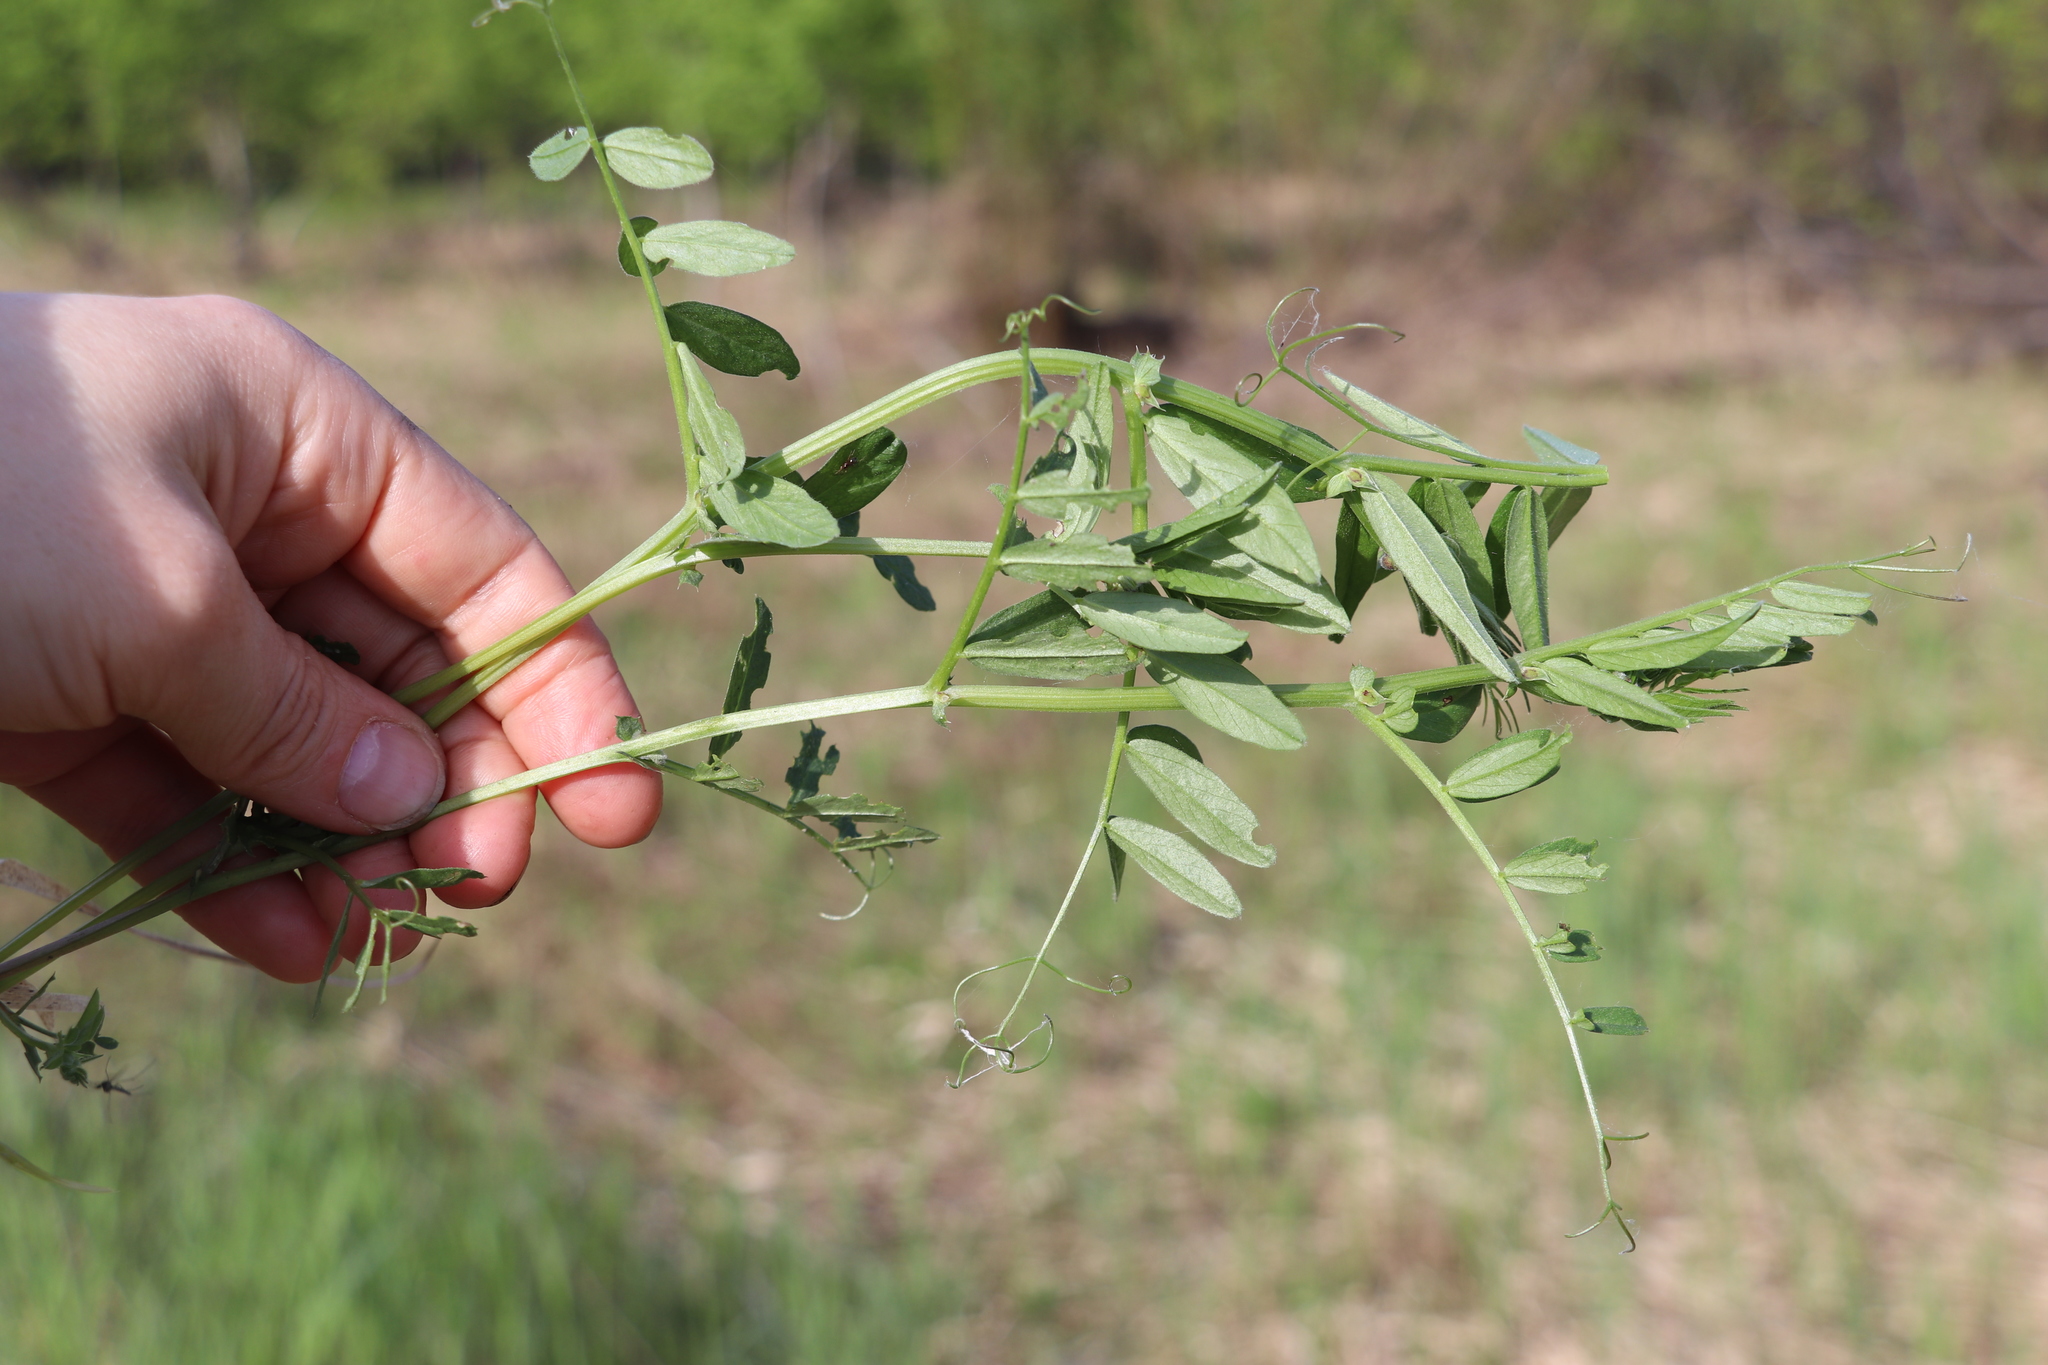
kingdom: Plantae
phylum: Tracheophyta
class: Magnoliopsida
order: Fabales
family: Fabaceae
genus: Vicia
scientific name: Vicia sepium
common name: Bush vetch
